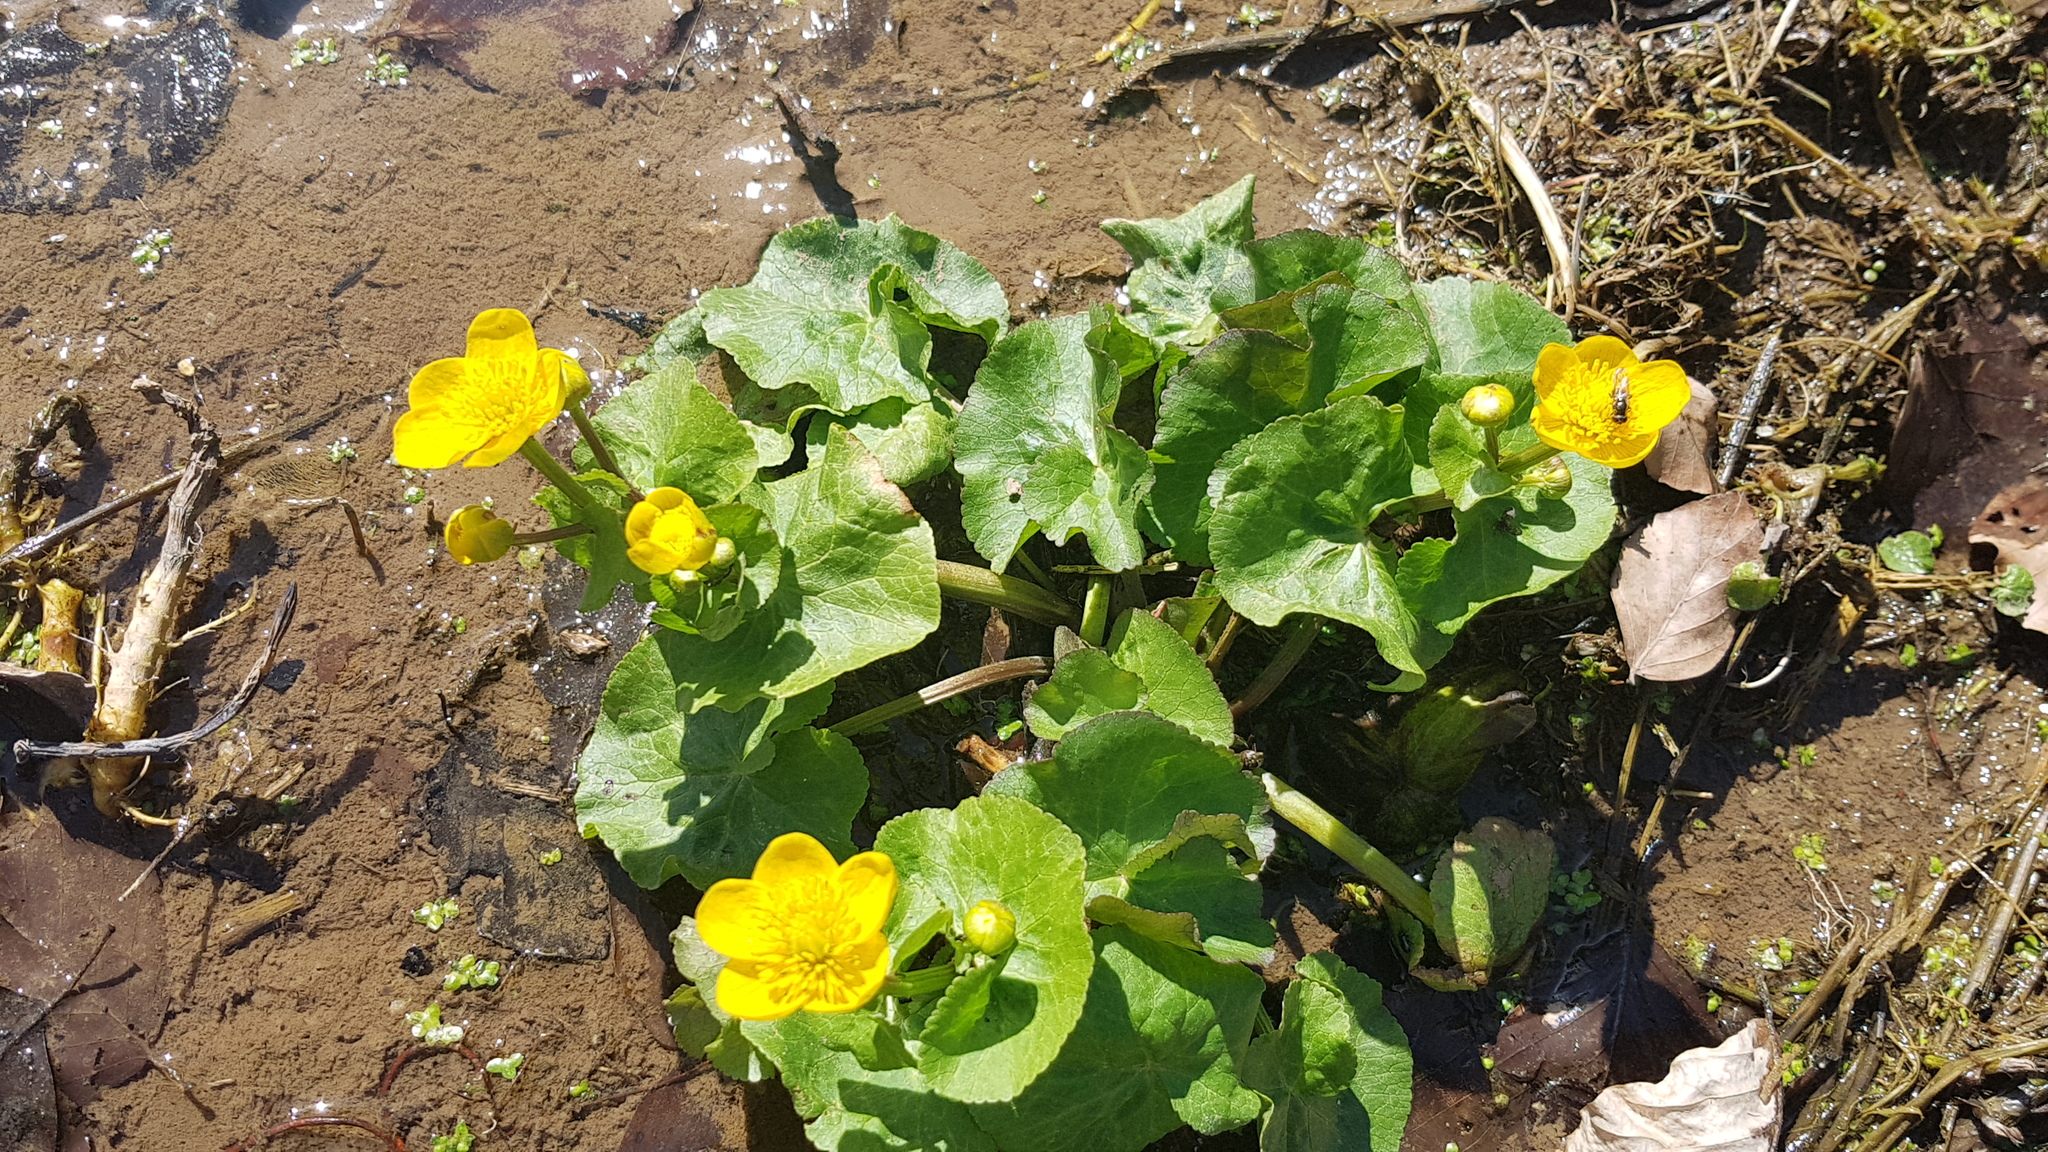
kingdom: Plantae
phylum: Tracheophyta
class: Magnoliopsida
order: Ranunculales
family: Ranunculaceae
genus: Caltha
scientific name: Caltha palustris
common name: Marsh marigold
